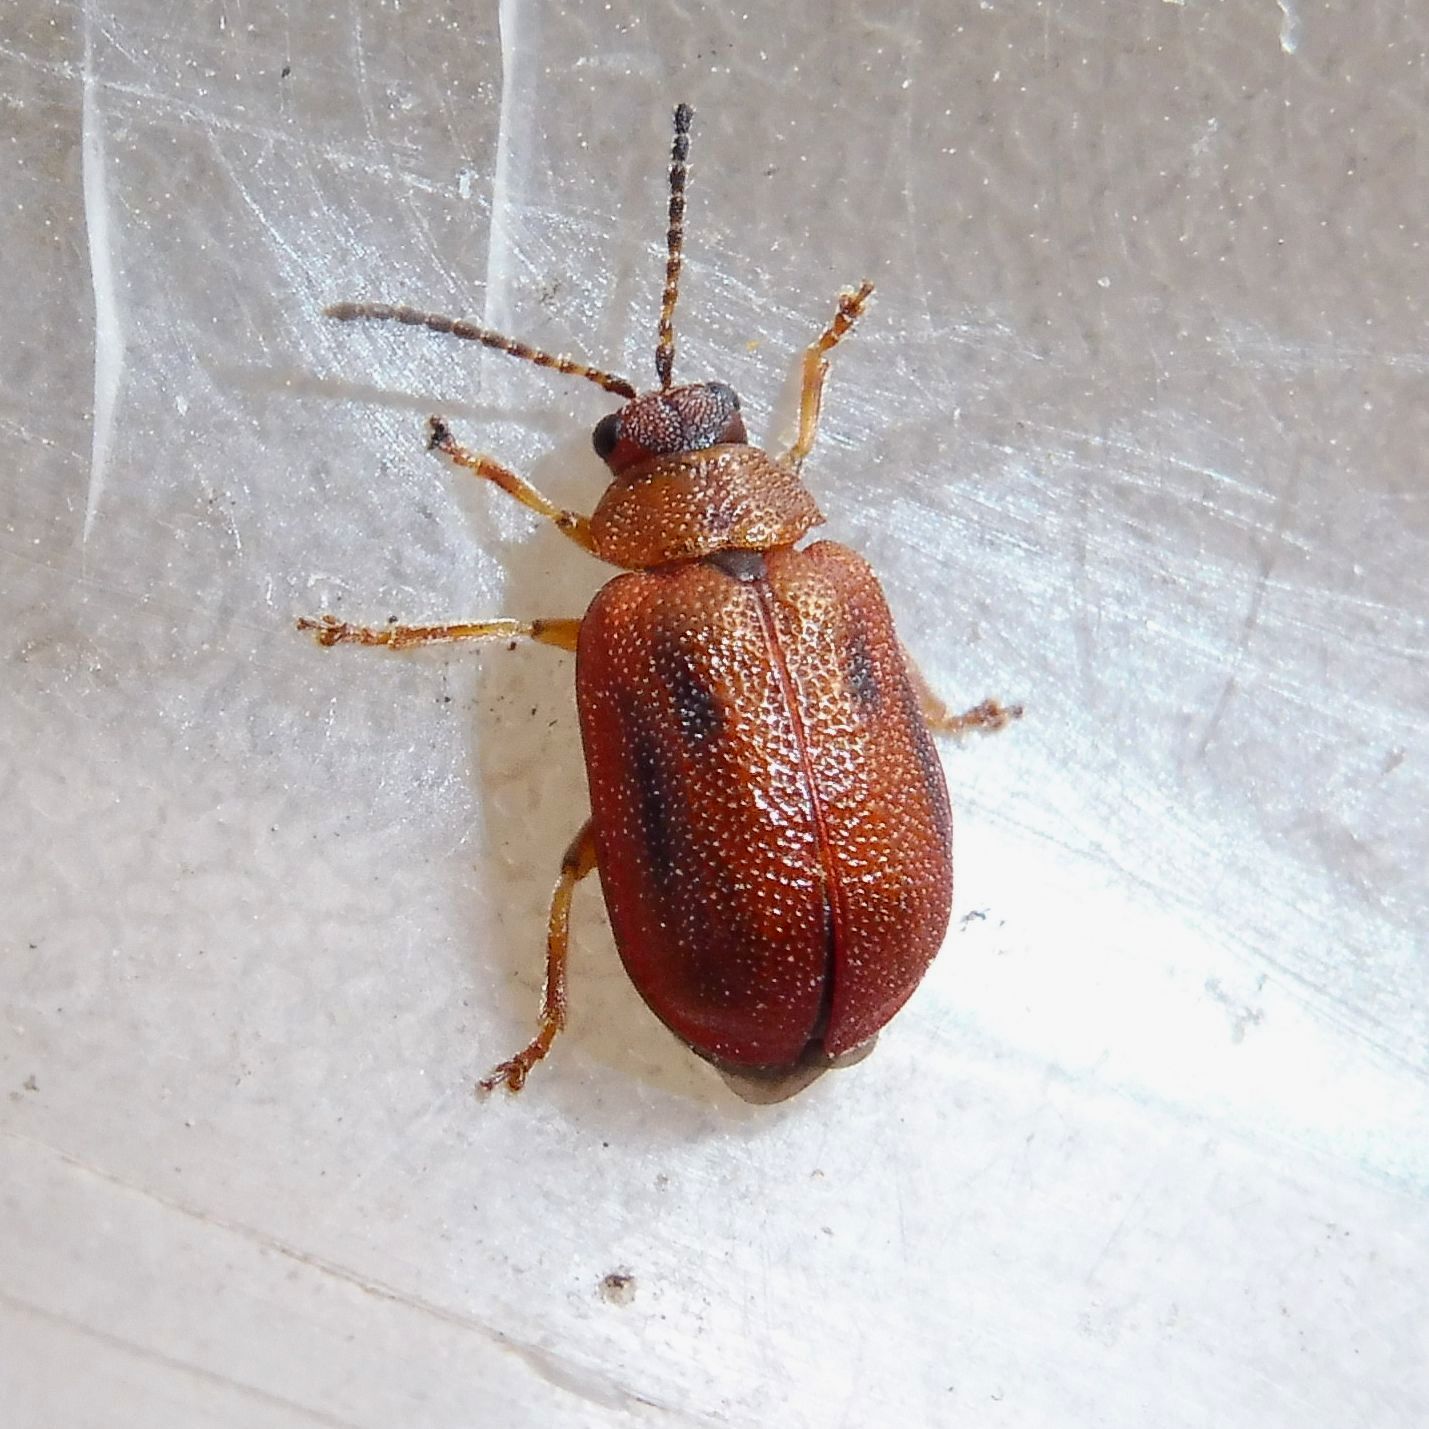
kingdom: Animalia
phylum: Arthropoda
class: Insecta
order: Coleoptera
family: Chrysomelidae
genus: Lochmaea
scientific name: Lochmaea crataegi
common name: Hawthorn leaf beetle
